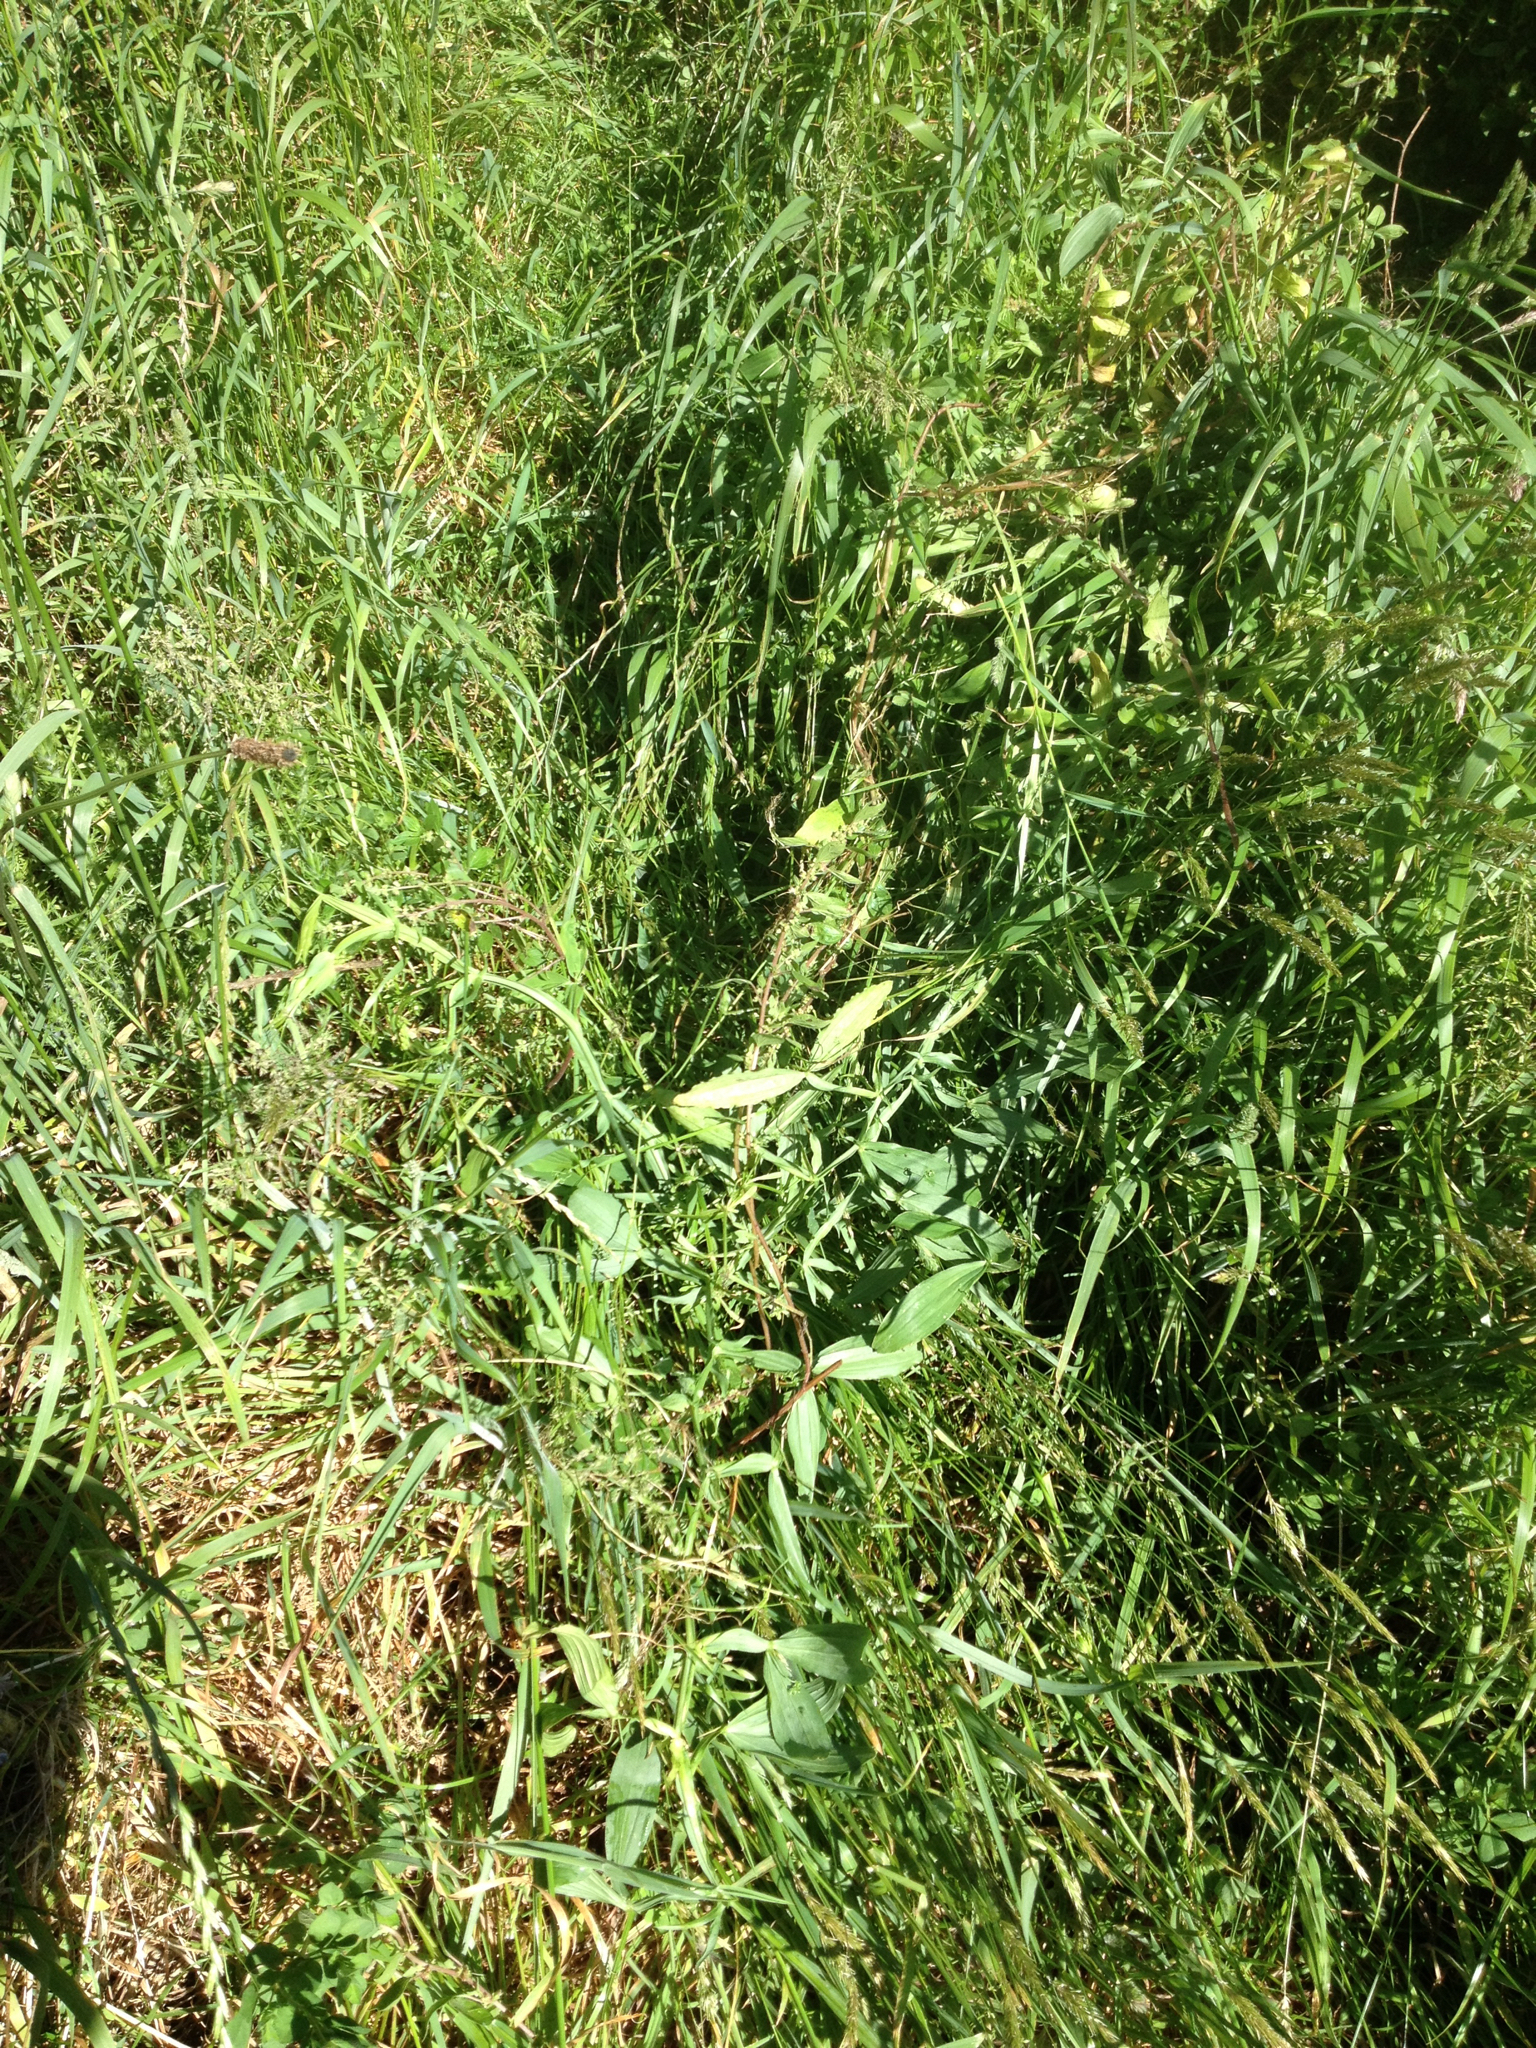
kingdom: Plantae
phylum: Tracheophyta
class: Magnoliopsida
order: Fabales
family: Fabaceae
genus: Lathyrus
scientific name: Lathyrus latifolius
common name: Perennial pea
